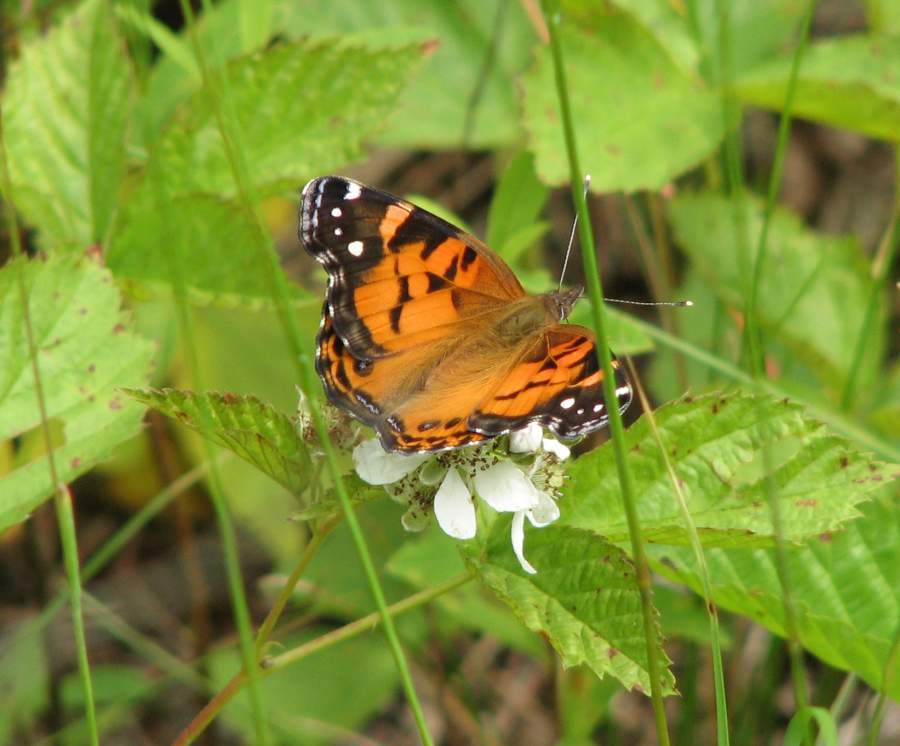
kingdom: Animalia
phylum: Arthropoda
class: Insecta
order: Lepidoptera
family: Nymphalidae
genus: Vanessa
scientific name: Vanessa virginiensis
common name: American lady
